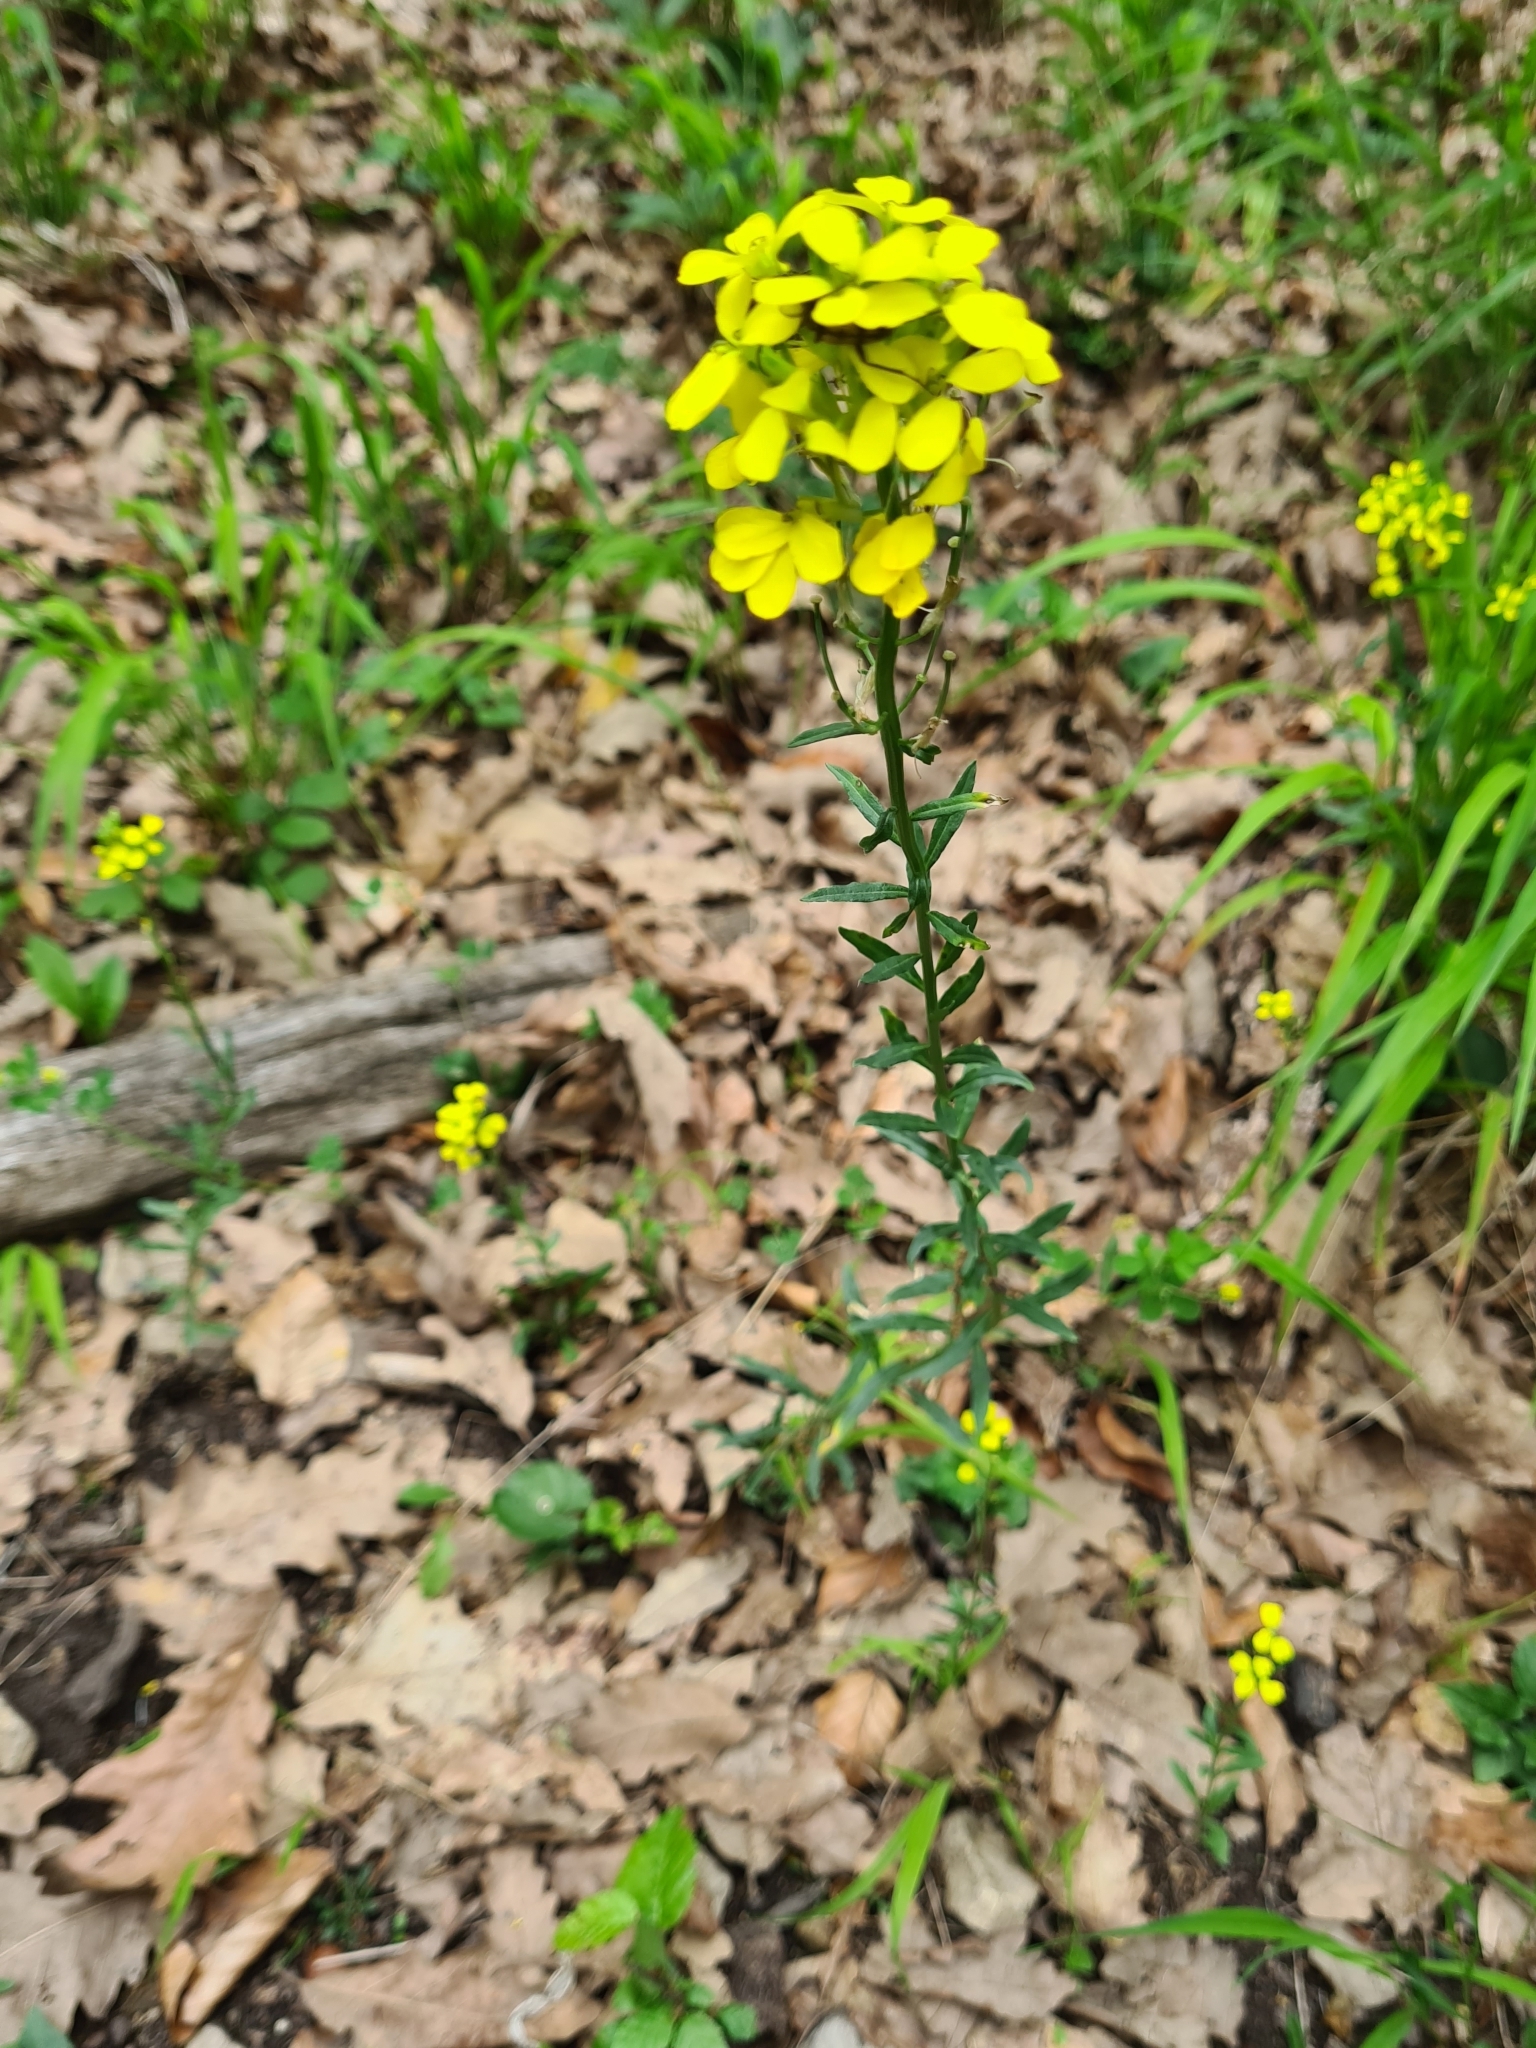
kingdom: Plantae
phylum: Tracheophyta
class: Magnoliopsida
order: Brassicales
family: Brassicaceae
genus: Erysimum
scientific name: Erysimum odoratum
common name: Smelly wallflower
